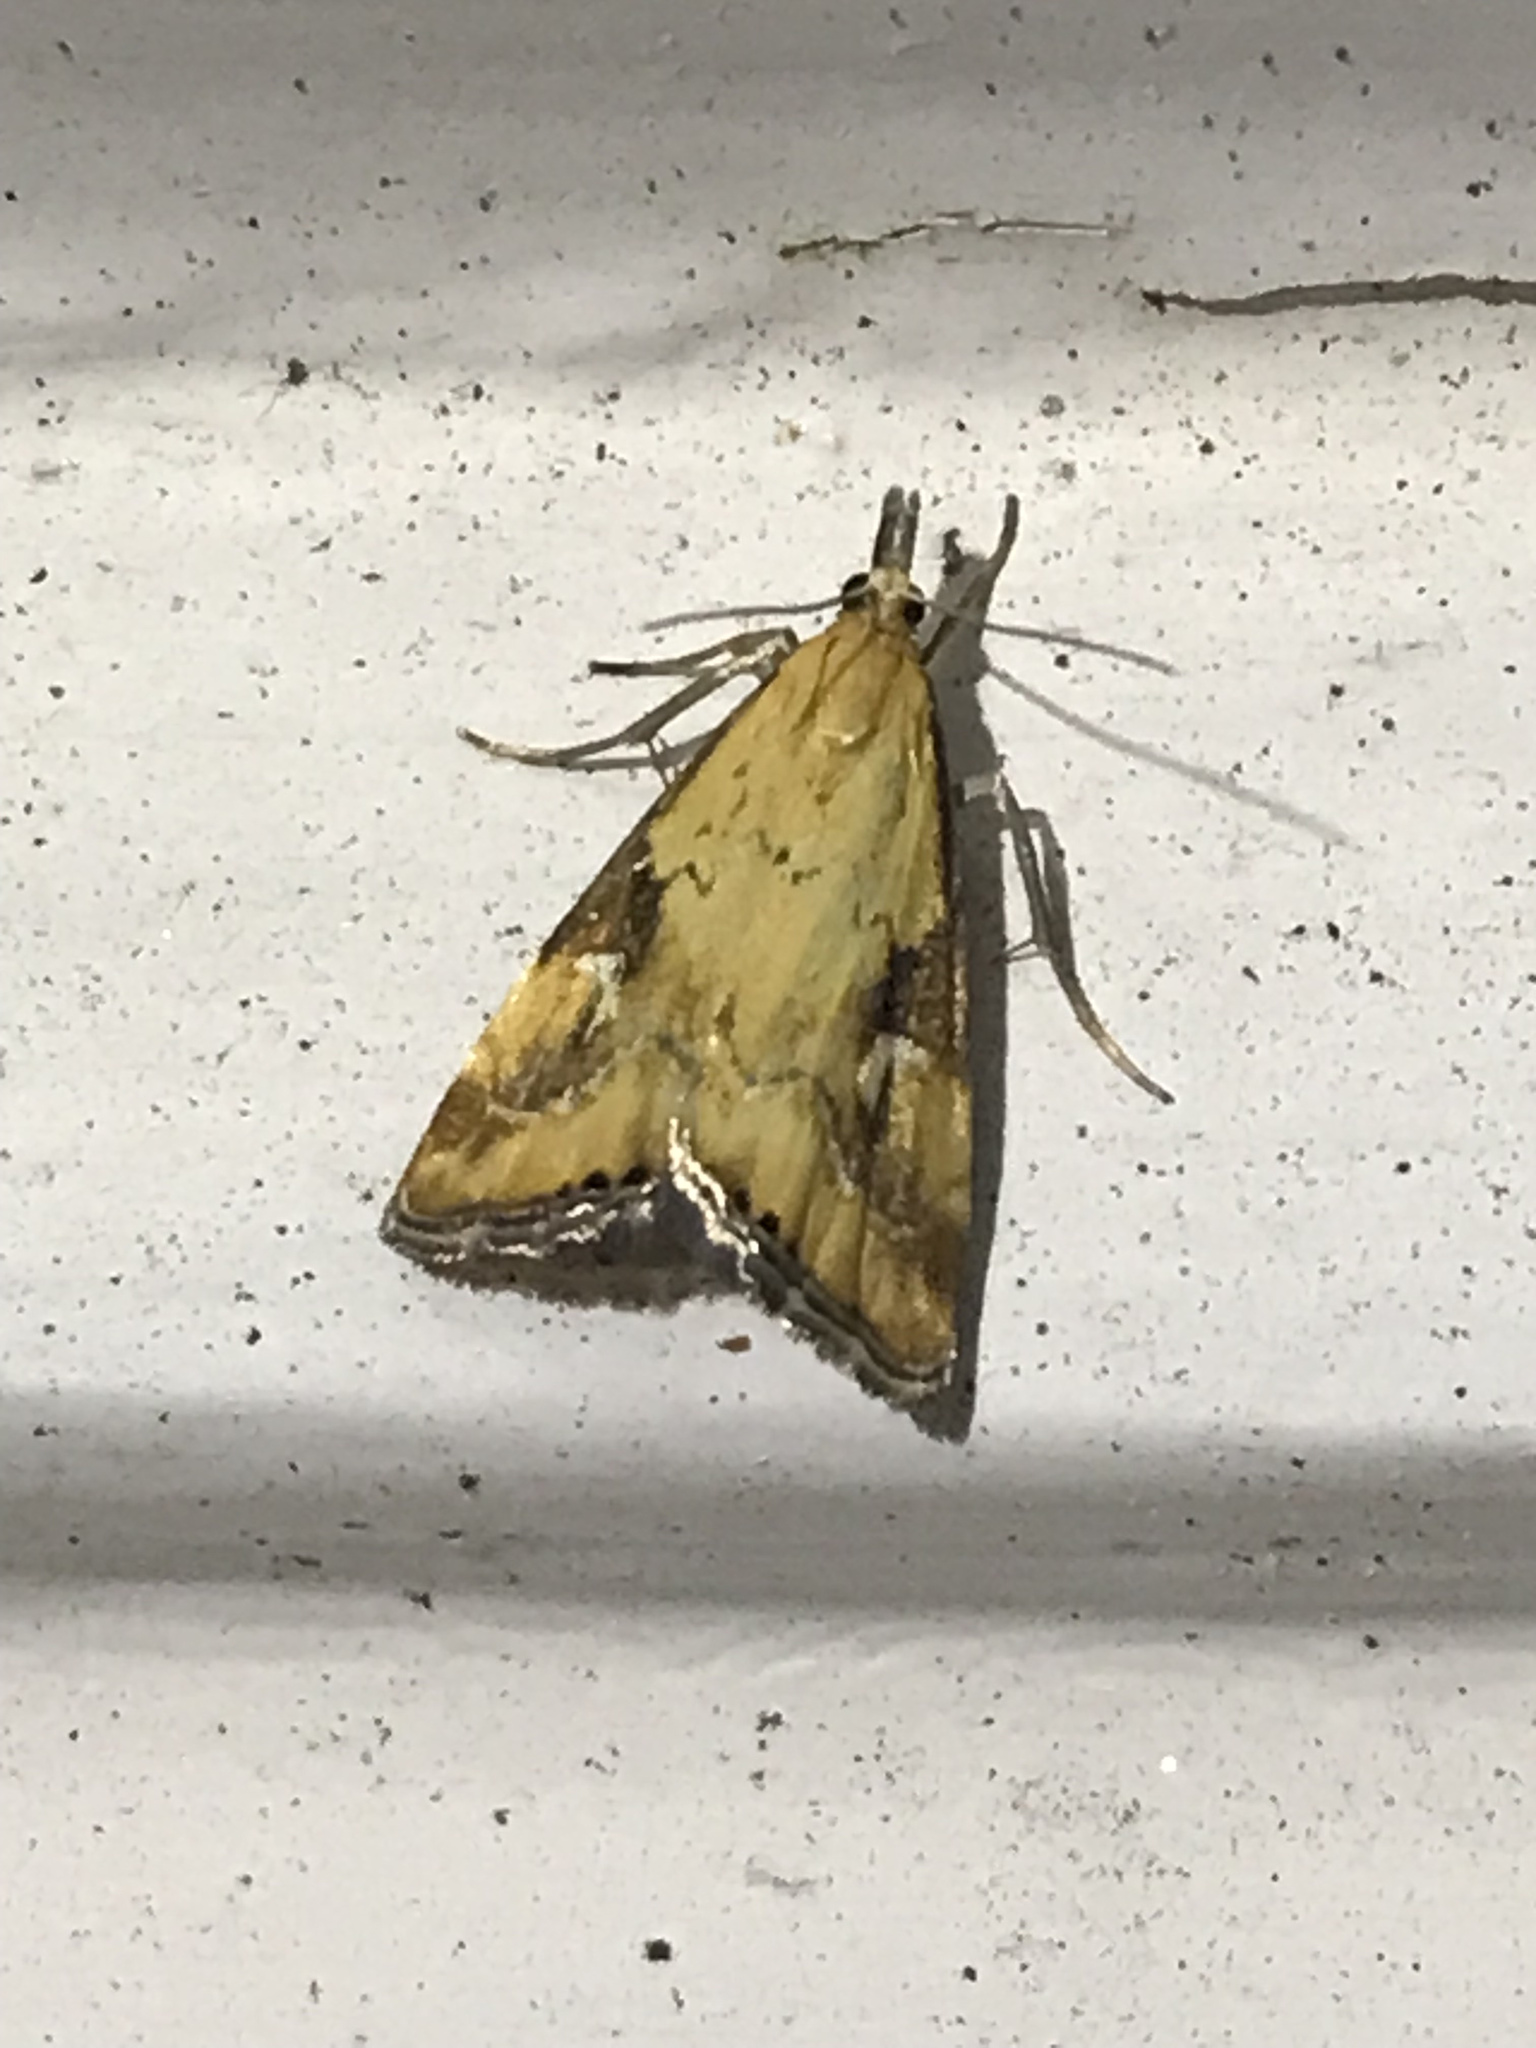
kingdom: Animalia
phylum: Arthropoda
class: Insecta
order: Lepidoptera
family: Crambidae
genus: Glaucocharis
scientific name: Glaucocharis lepidella
